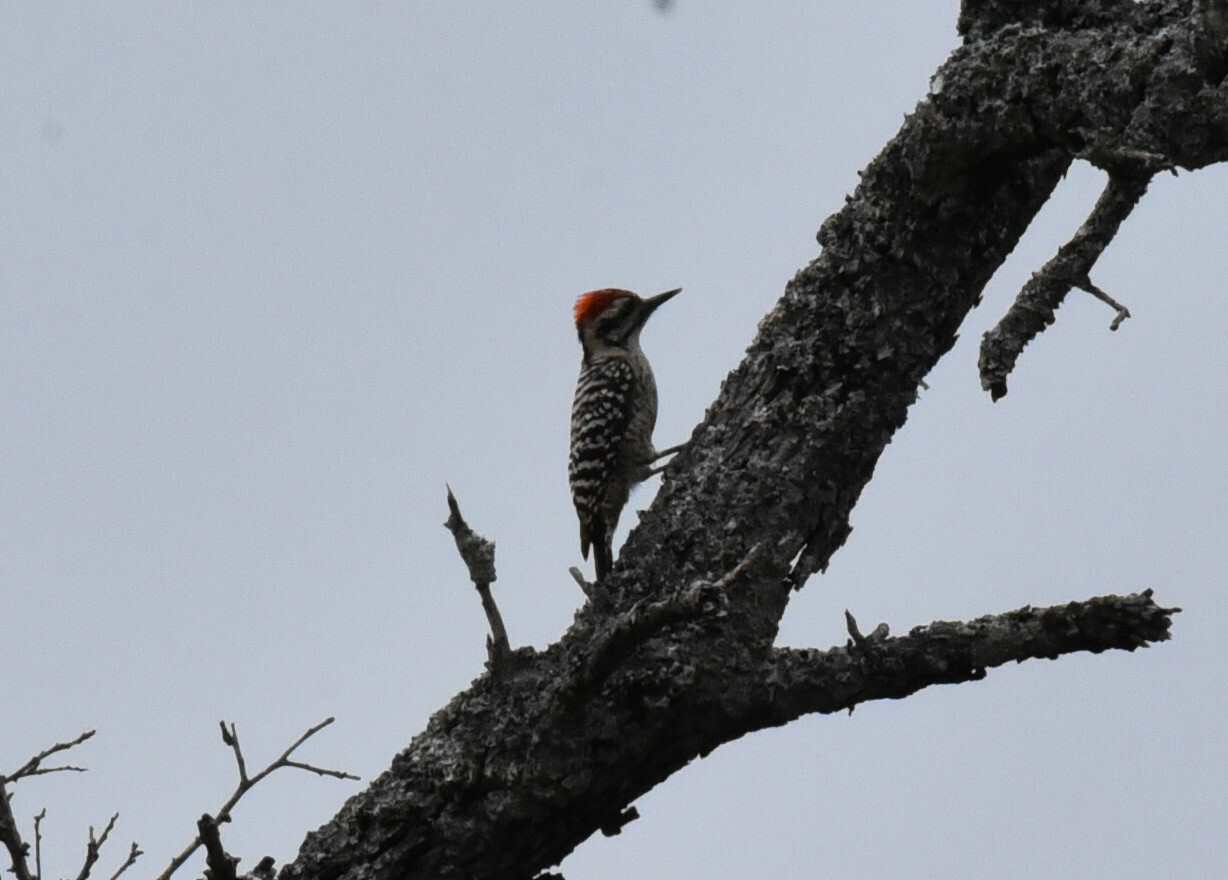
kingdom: Animalia
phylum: Chordata
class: Aves
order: Piciformes
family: Picidae
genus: Dryobates
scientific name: Dryobates scalaris
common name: Ladder-backed woodpecker
